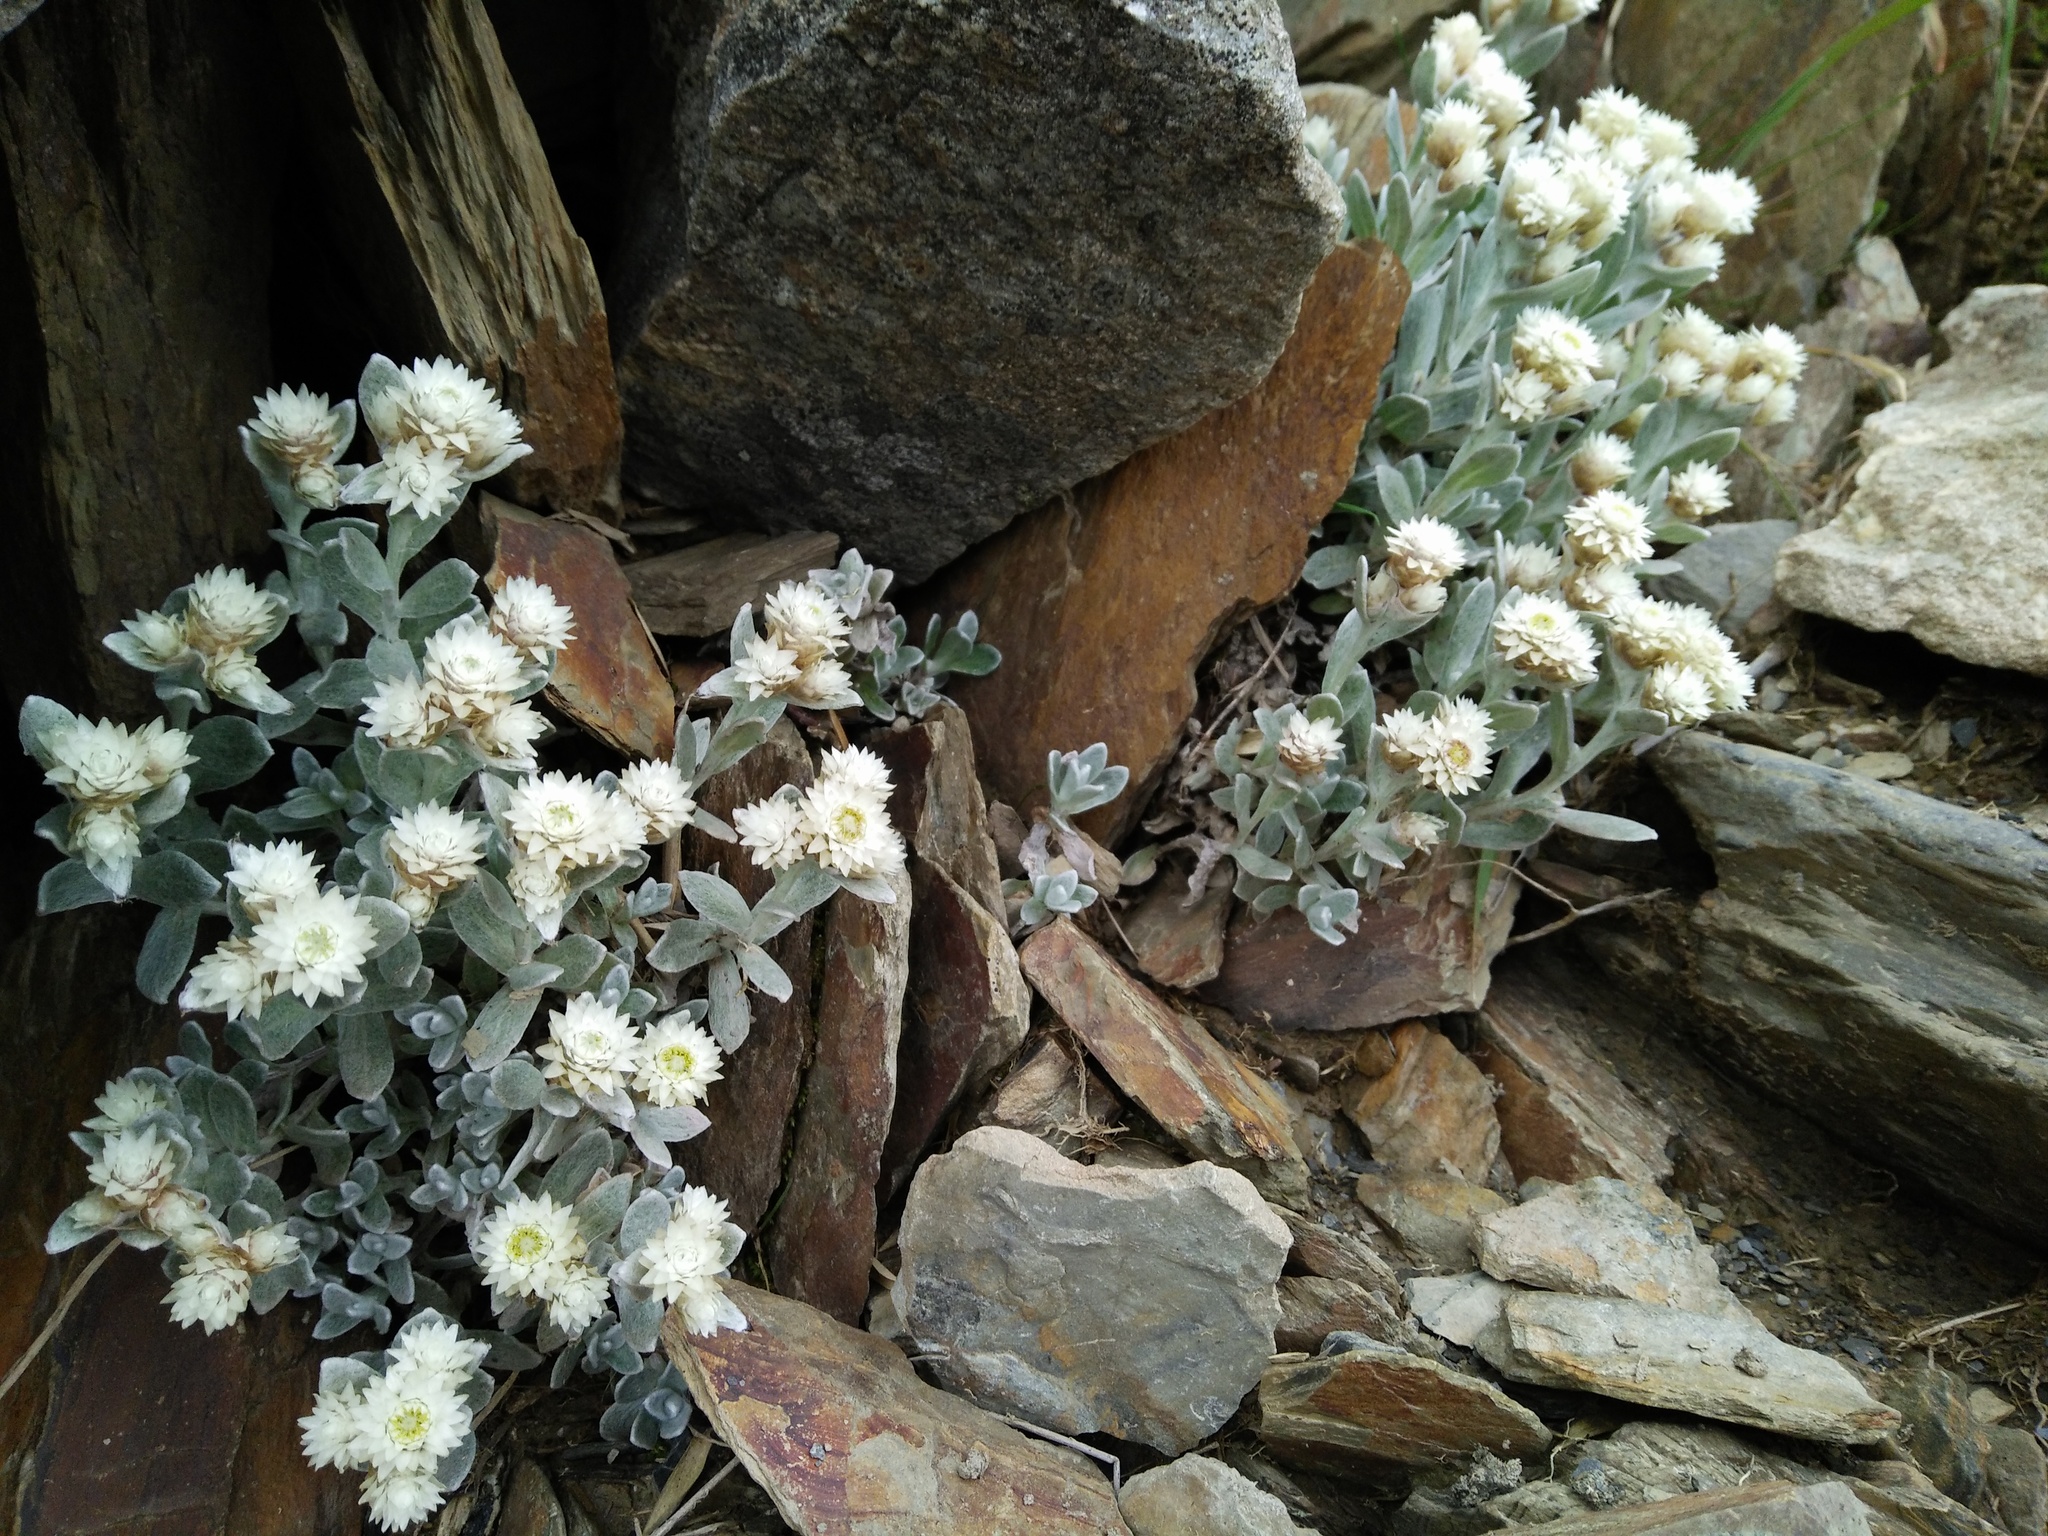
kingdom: Plantae
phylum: Tracheophyta
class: Magnoliopsida
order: Asterales
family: Asteraceae
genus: Anaphalis
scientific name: Anaphalis nepalensis
